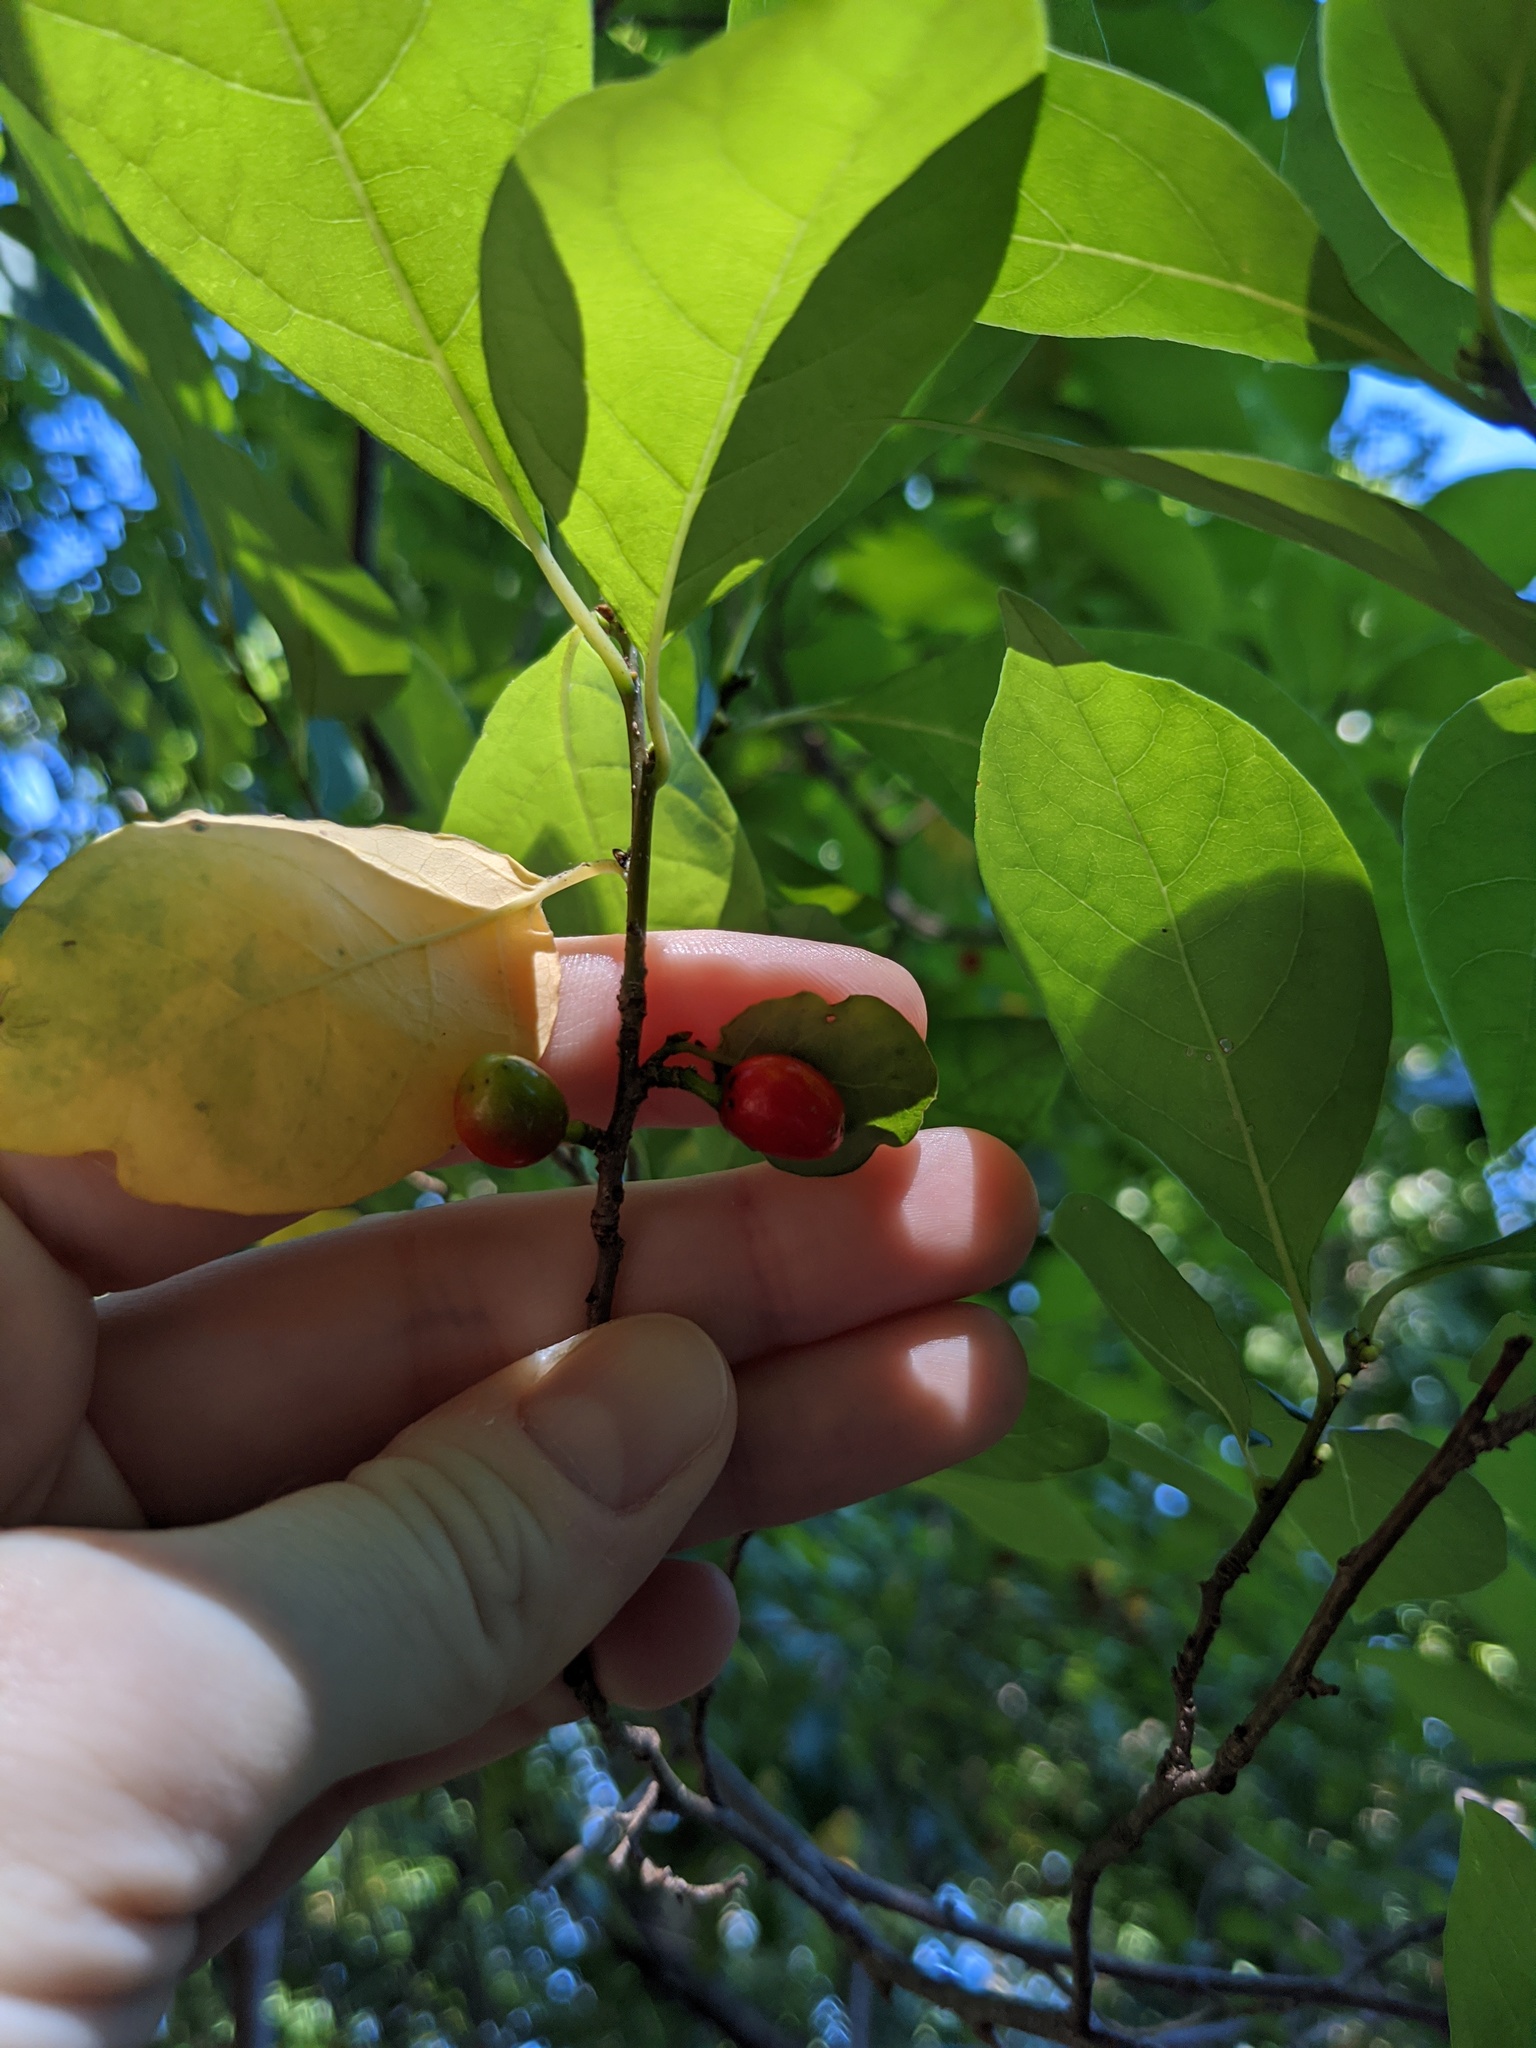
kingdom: Plantae
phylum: Tracheophyta
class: Magnoliopsida
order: Laurales
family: Lauraceae
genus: Lindera
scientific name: Lindera benzoin
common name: Spicebush
